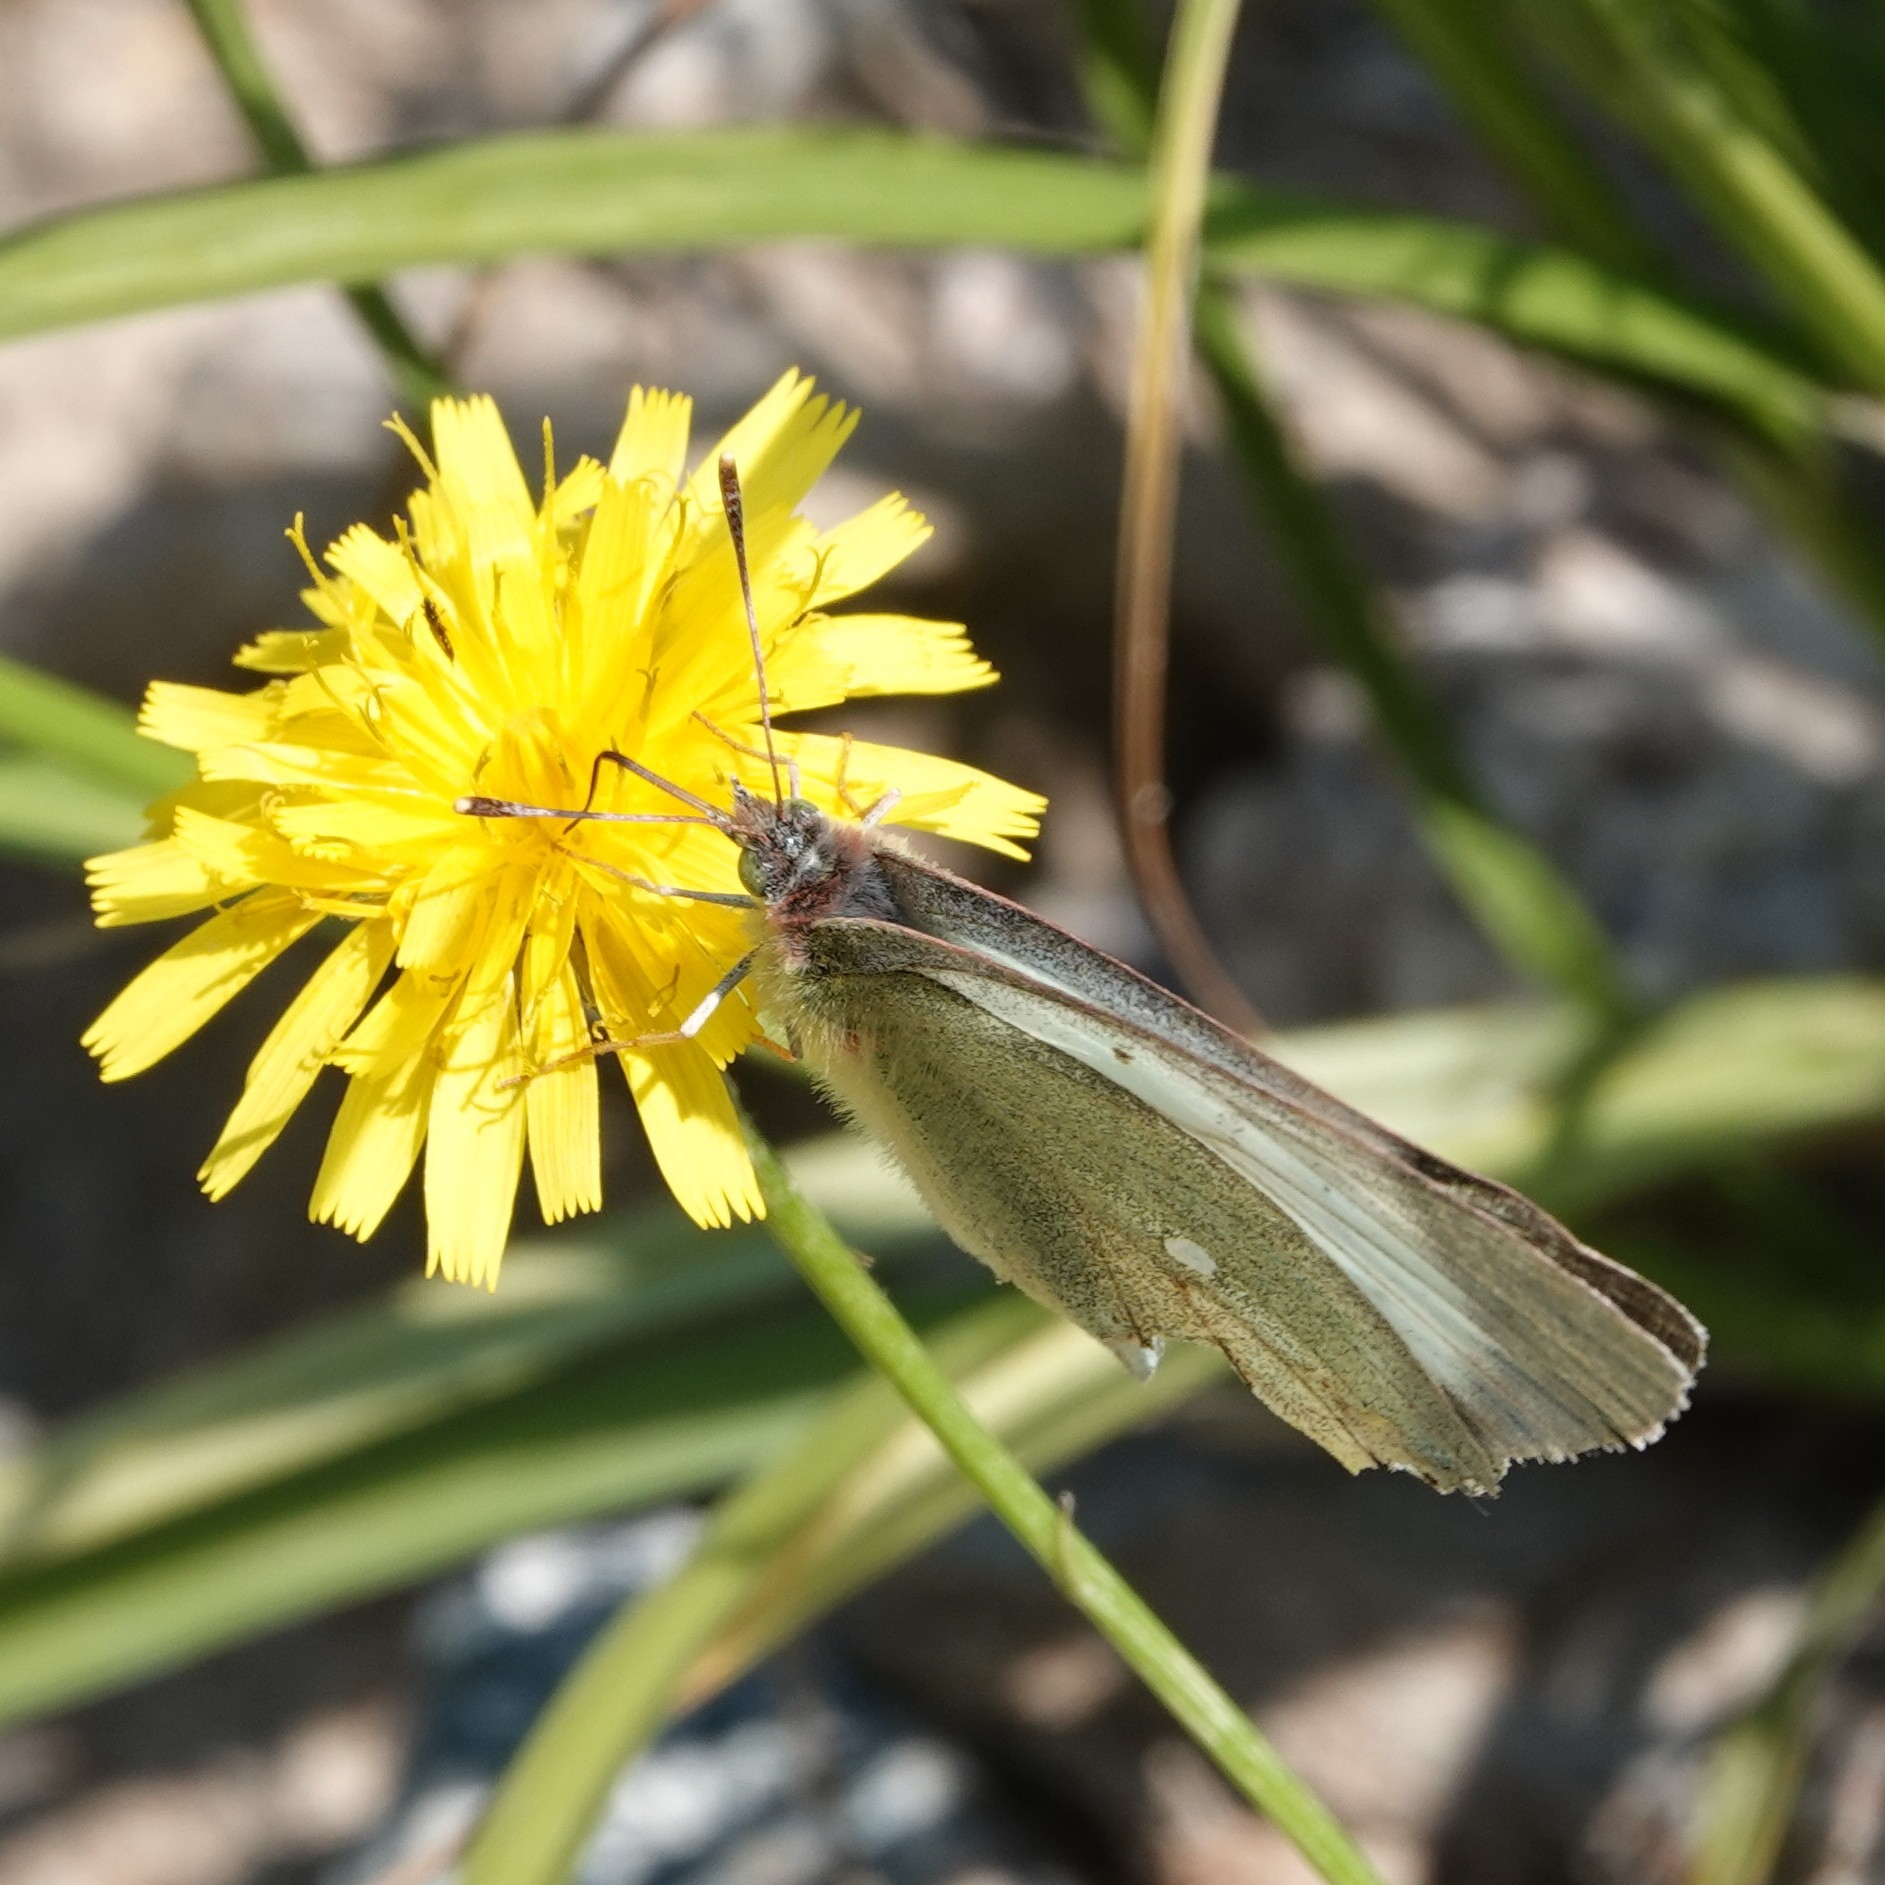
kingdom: Animalia
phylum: Arthropoda
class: Insecta
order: Lepidoptera
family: Pieridae
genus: Colias
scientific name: Colias palaeno
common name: Moorland clouded yellow
